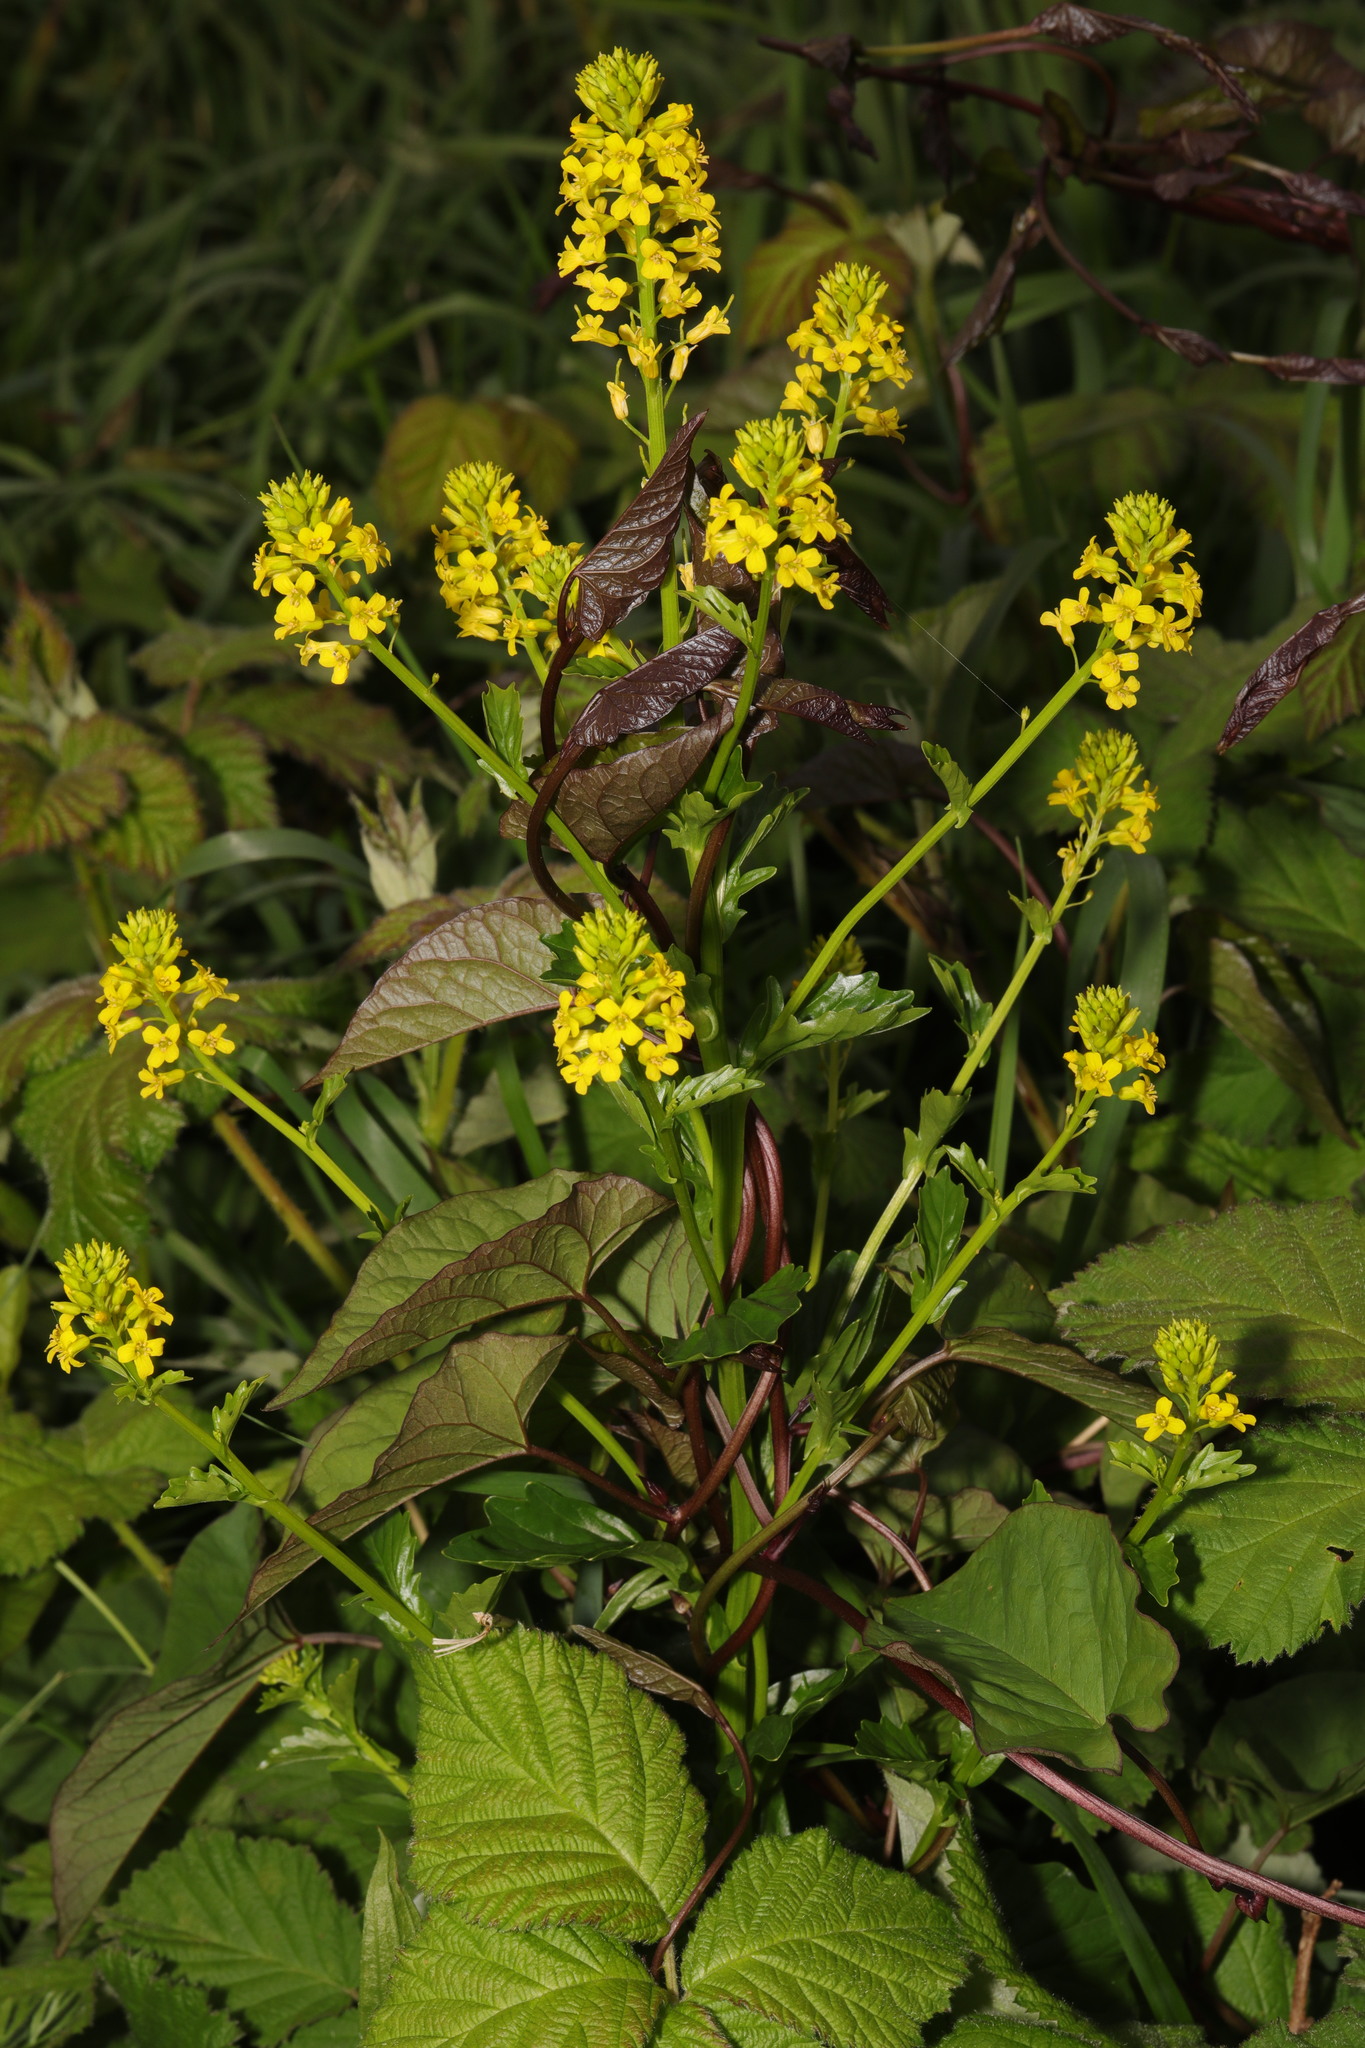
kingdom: Plantae
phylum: Tracheophyta
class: Magnoliopsida
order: Brassicales
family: Brassicaceae
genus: Barbarea
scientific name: Barbarea vulgaris
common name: Cressy-greens
